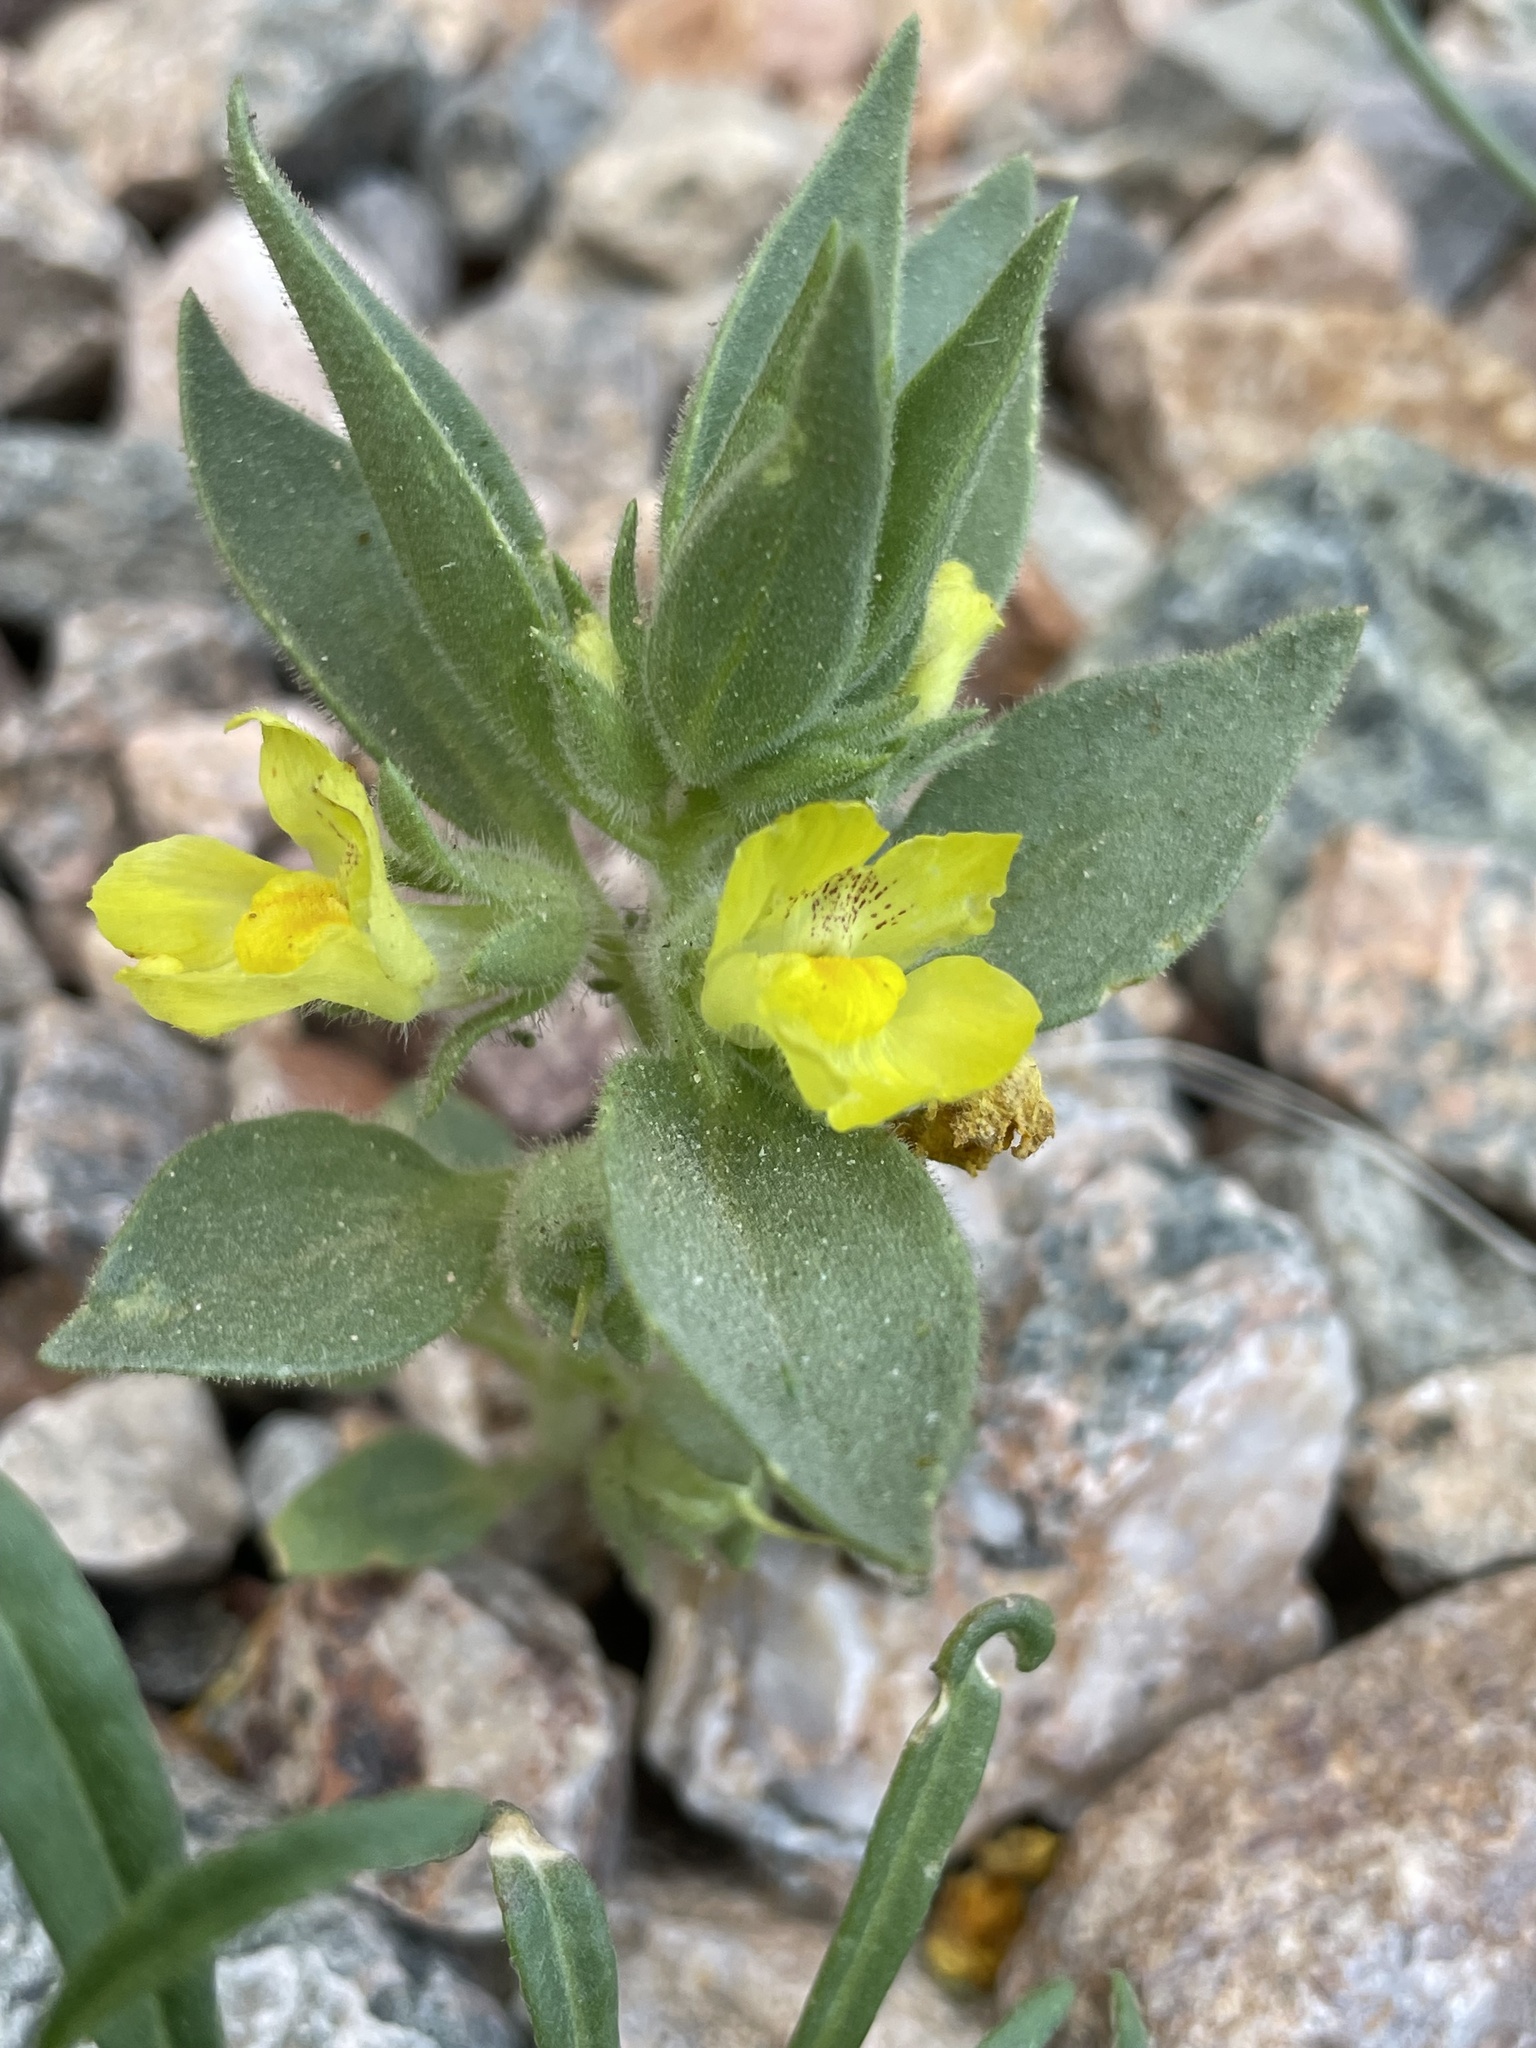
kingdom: Plantae
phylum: Tracheophyta
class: Magnoliopsida
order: Lamiales
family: Plantaginaceae
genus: Mohavea
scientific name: Mohavea breviflora
